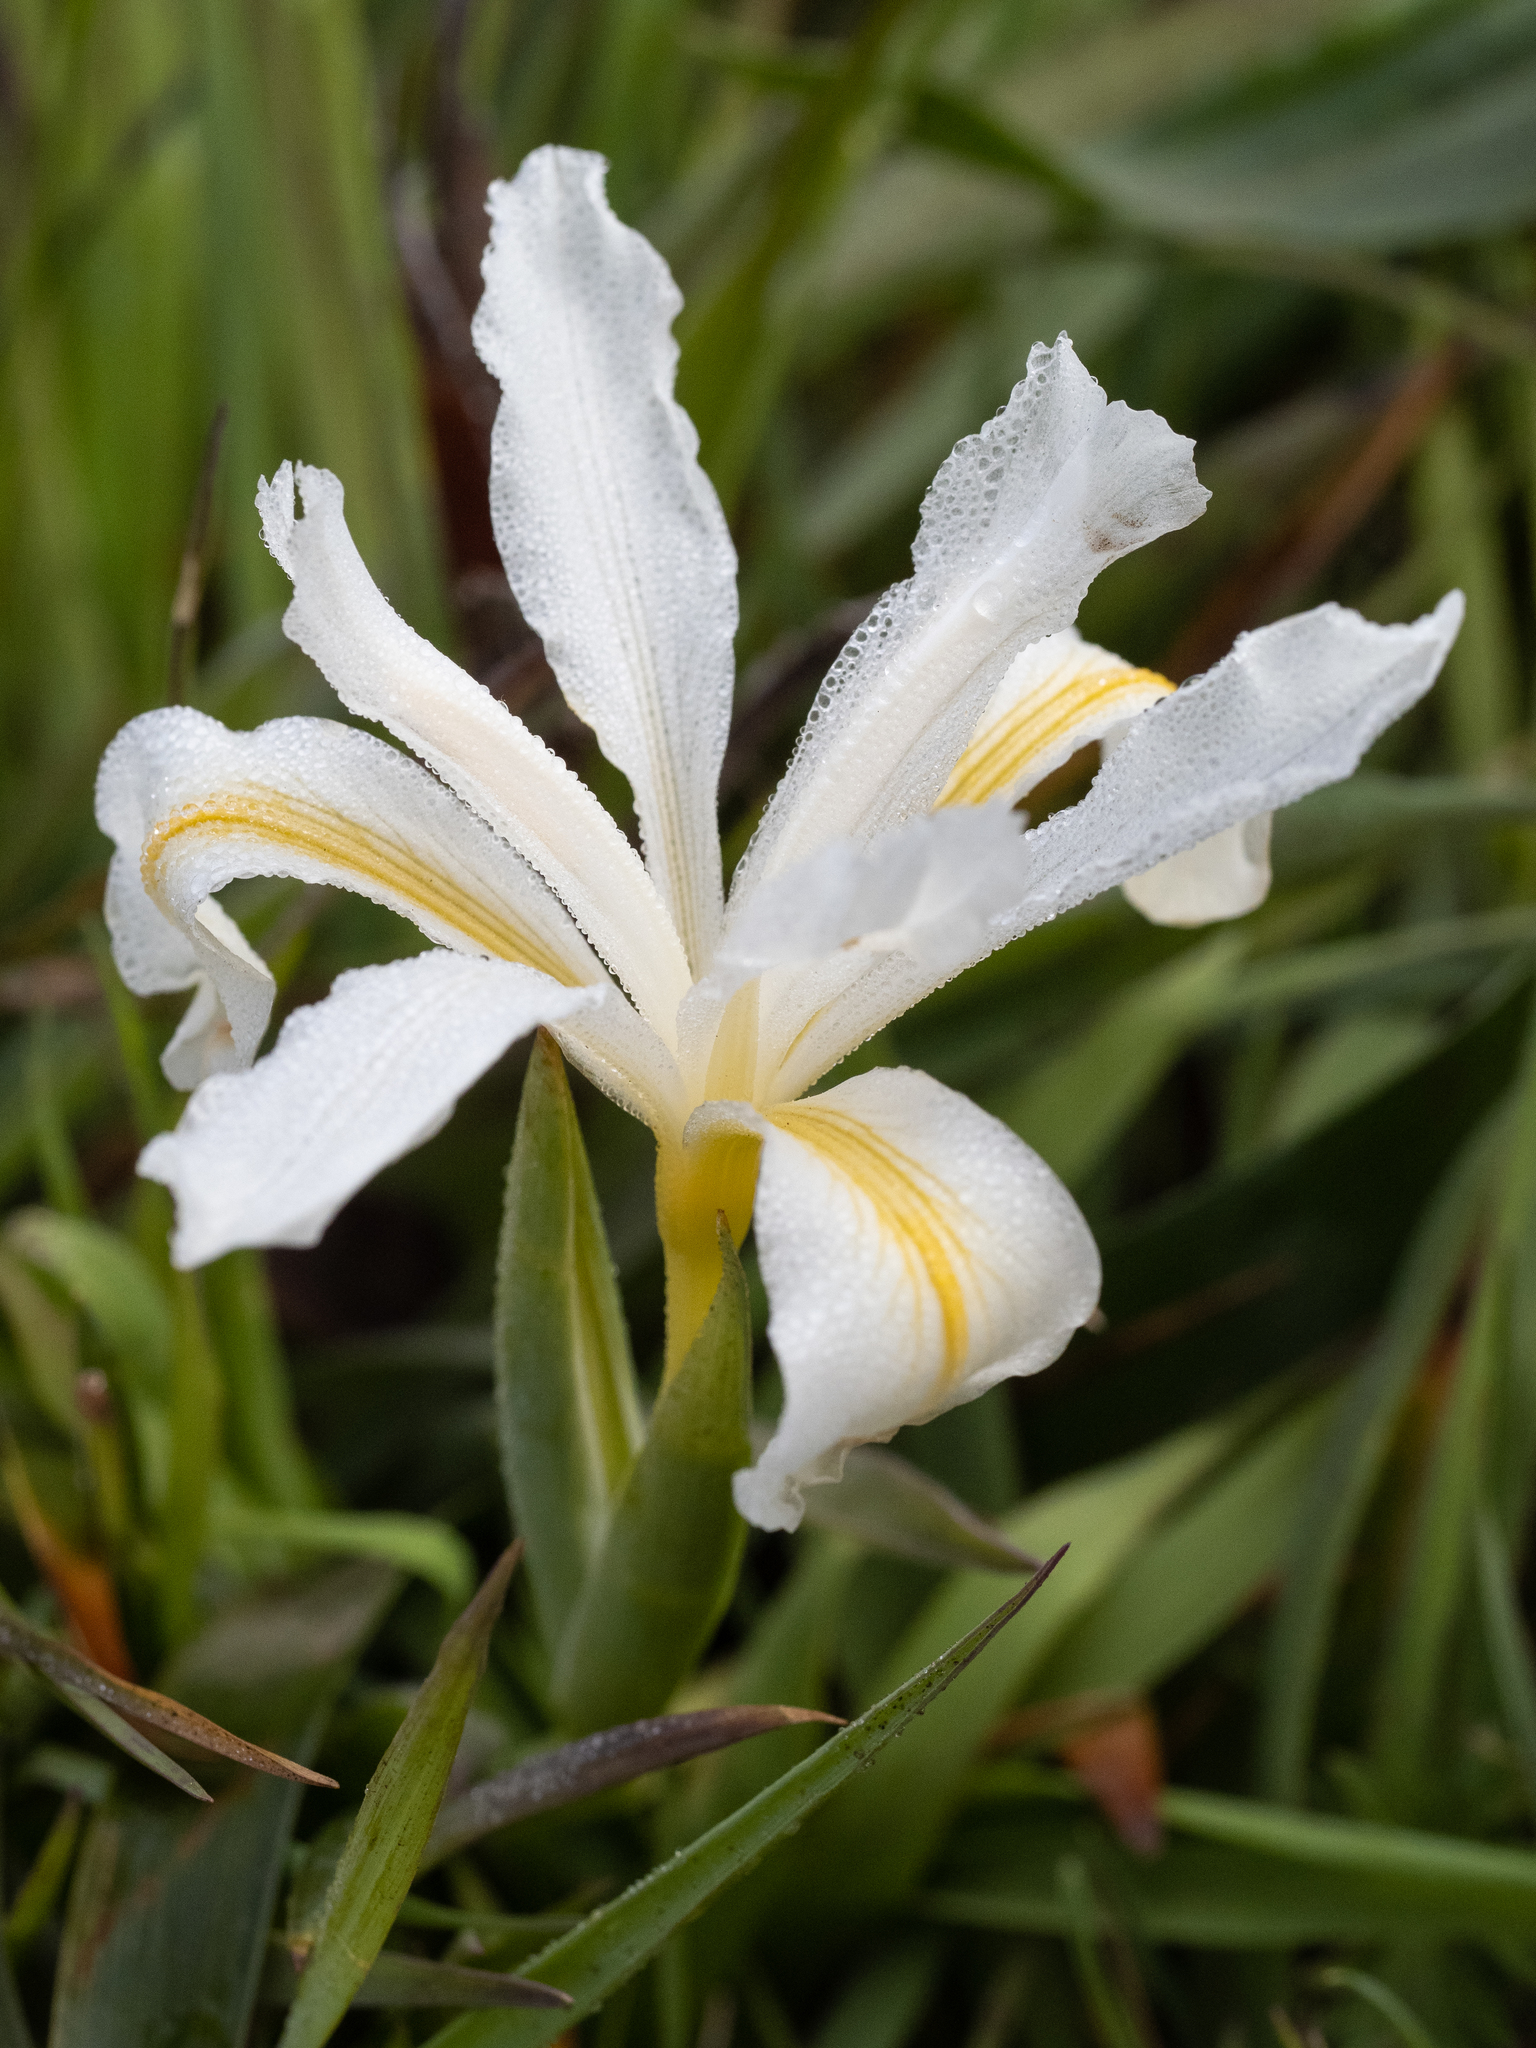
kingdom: Plantae
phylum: Tracheophyta
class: Liliopsida
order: Asparagales
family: Iridaceae
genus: Iris
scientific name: Iris douglasiana
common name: Marin iris
